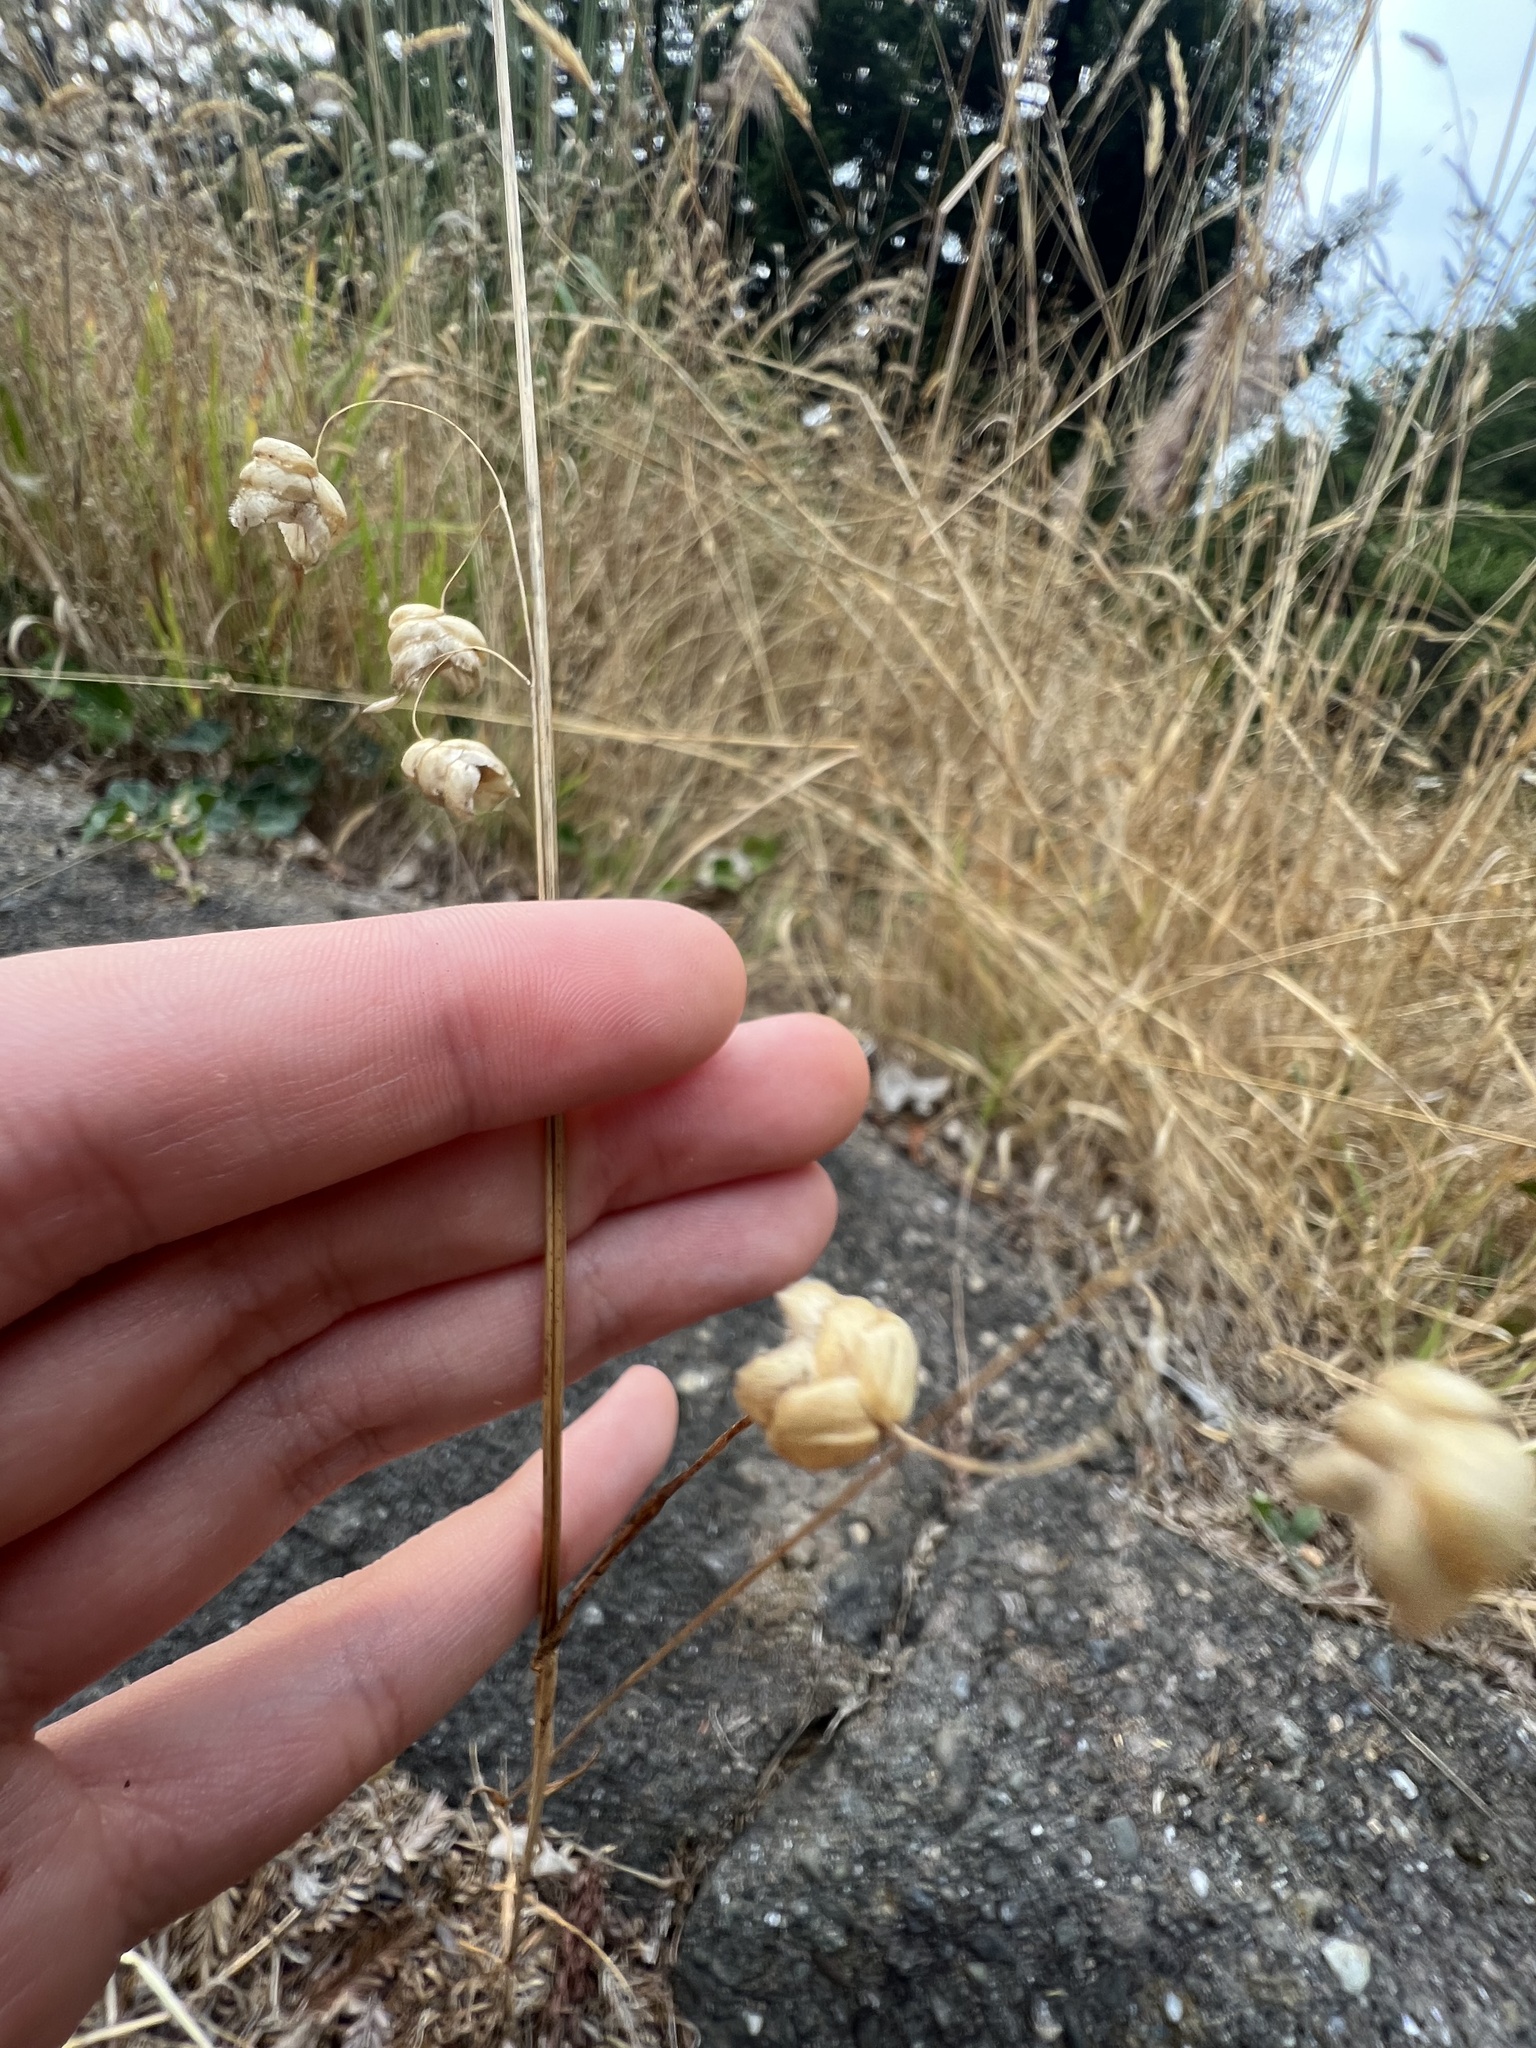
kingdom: Plantae
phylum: Tracheophyta
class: Liliopsida
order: Poales
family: Poaceae
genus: Briza
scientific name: Briza maxima
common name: Big quakinggrass
